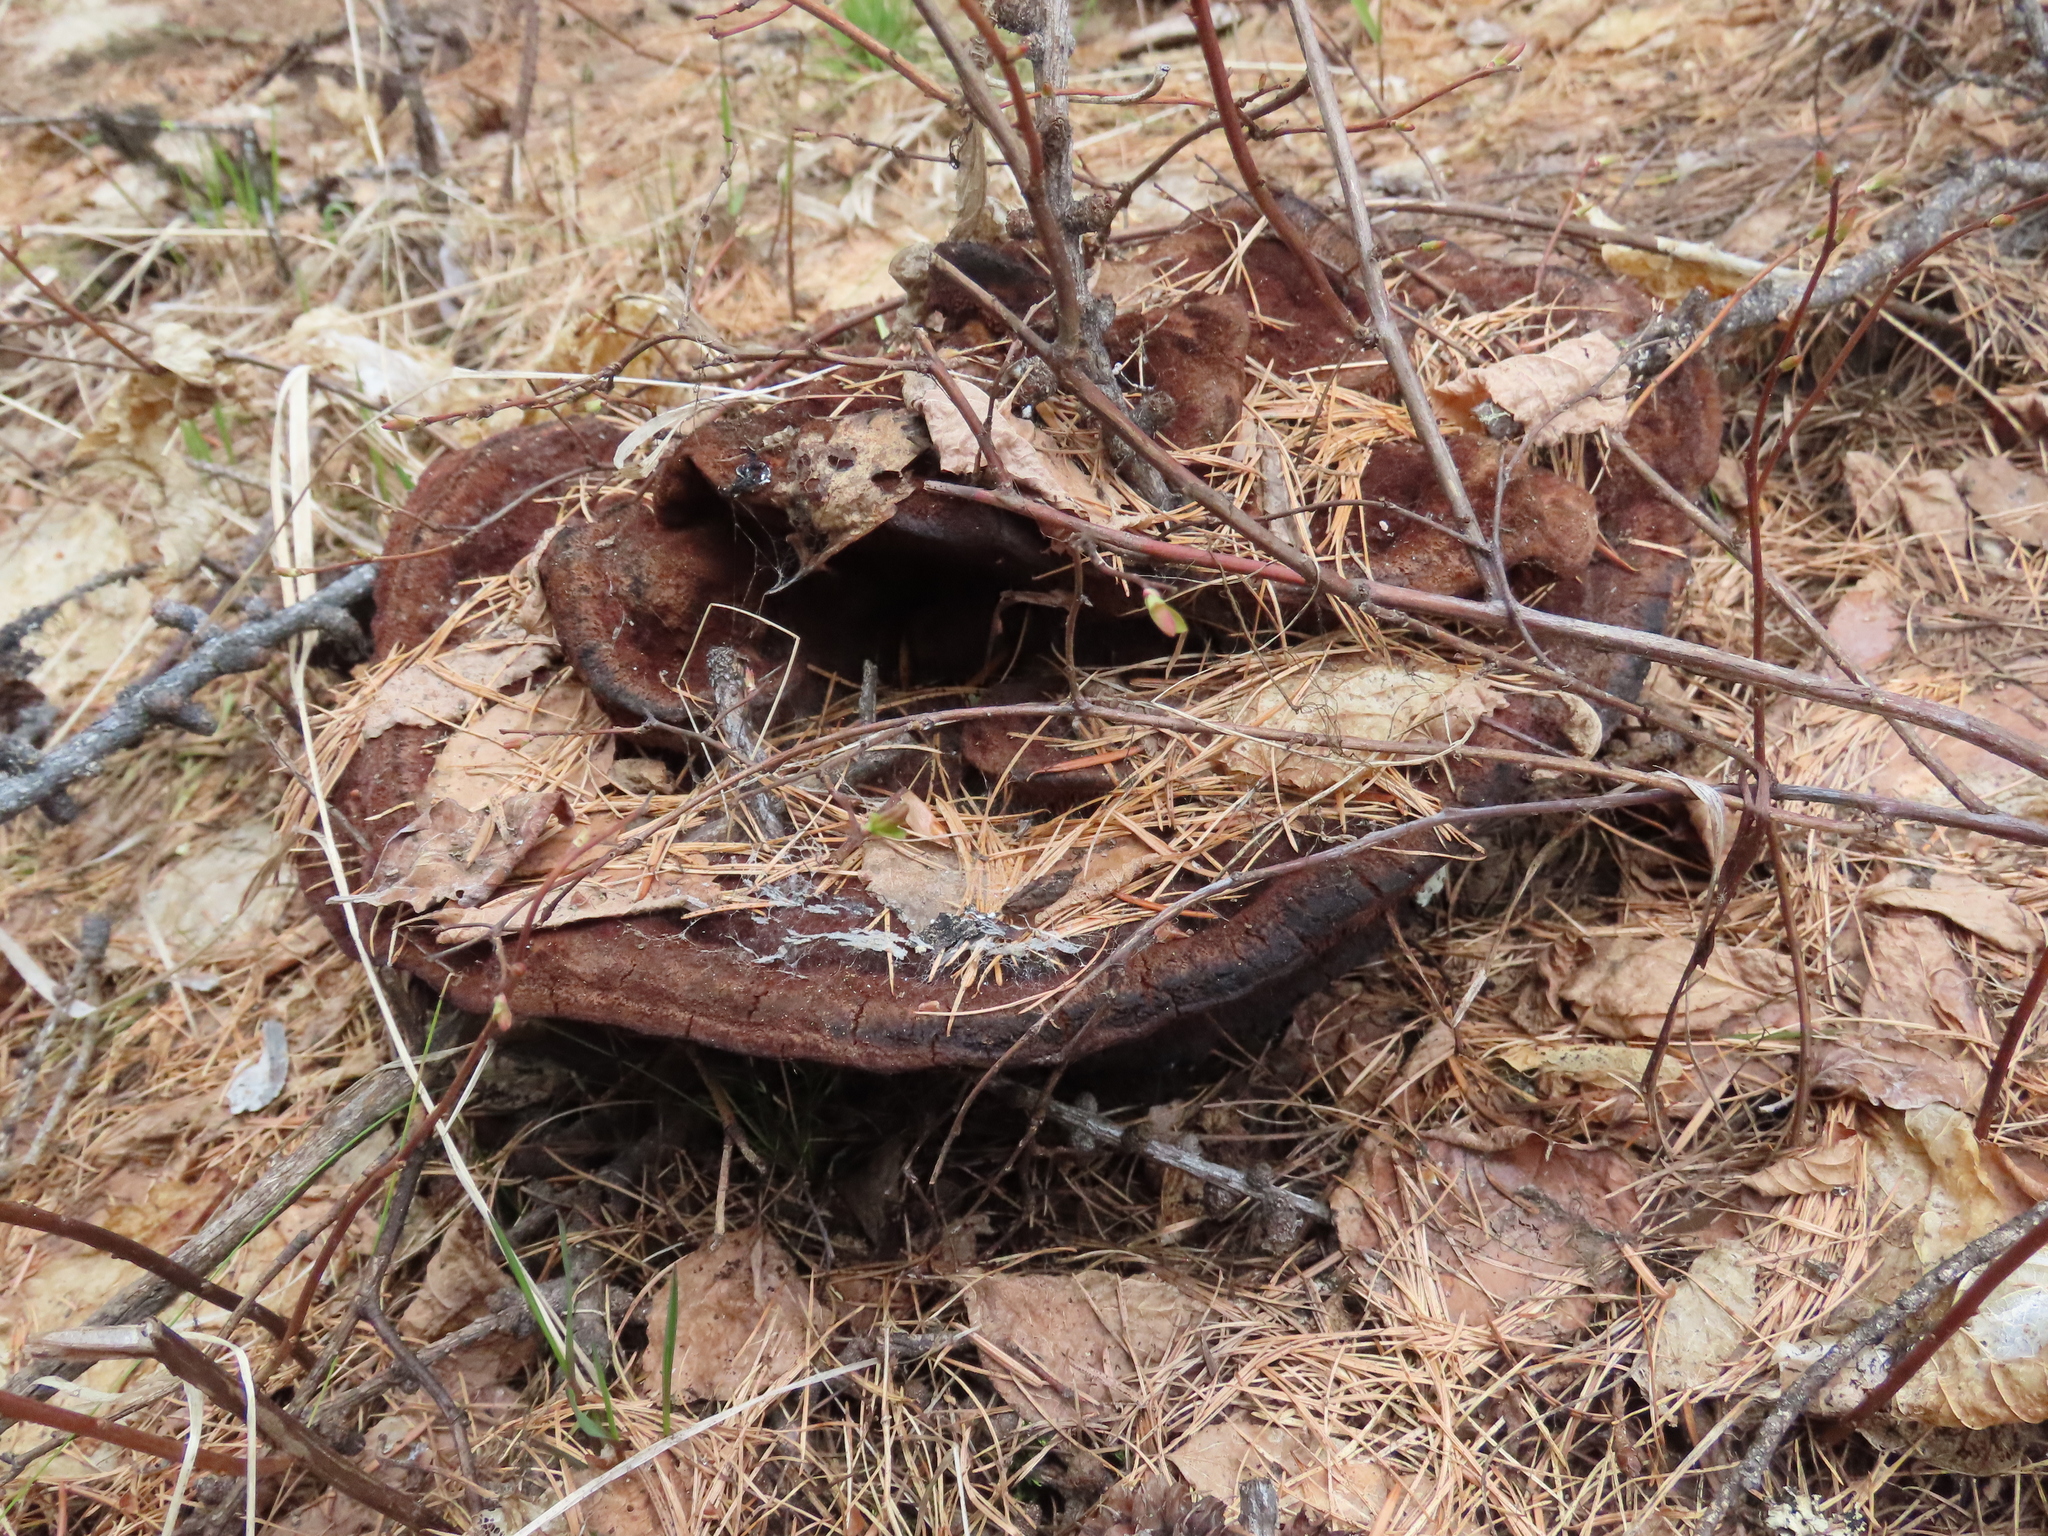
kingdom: Fungi
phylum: Basidiomycota
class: Agaricomycetes
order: Polyporales
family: Laetiporaceae
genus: Phaeolus
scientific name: Phaeolus schweinitzii
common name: Dyer's mazegill
